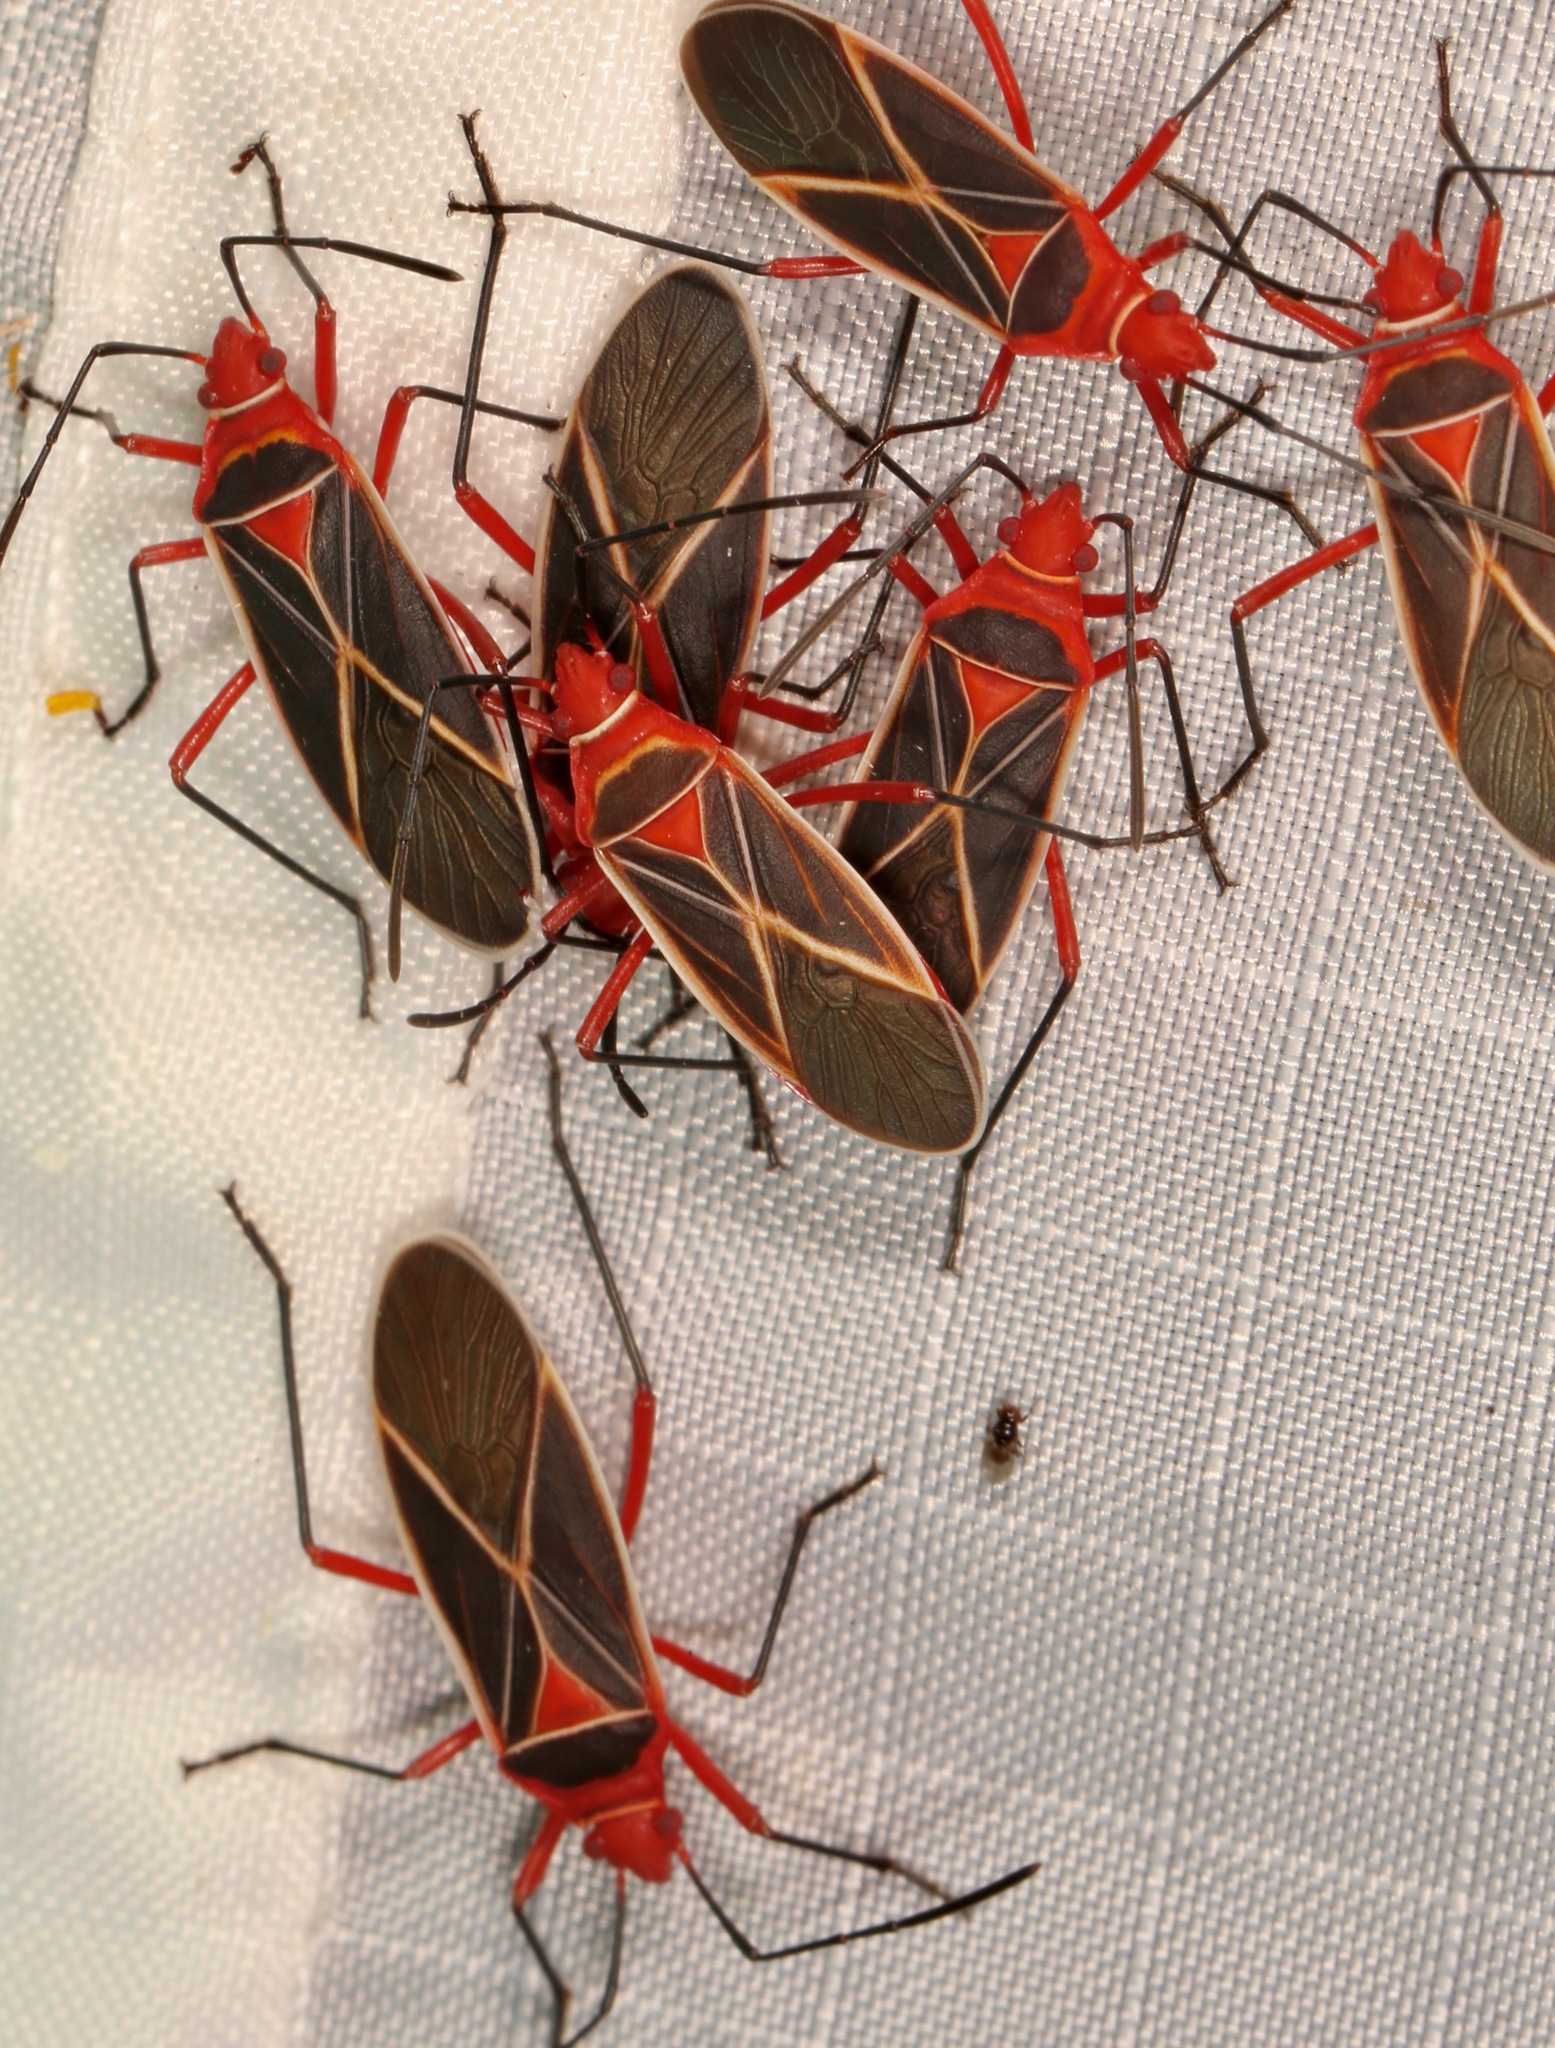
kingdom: Animalia
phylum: Arthropoda
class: Insecta
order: Hemiptera
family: Pyrrhocoridae
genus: Dysdercus
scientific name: Dysdercus suturellus
